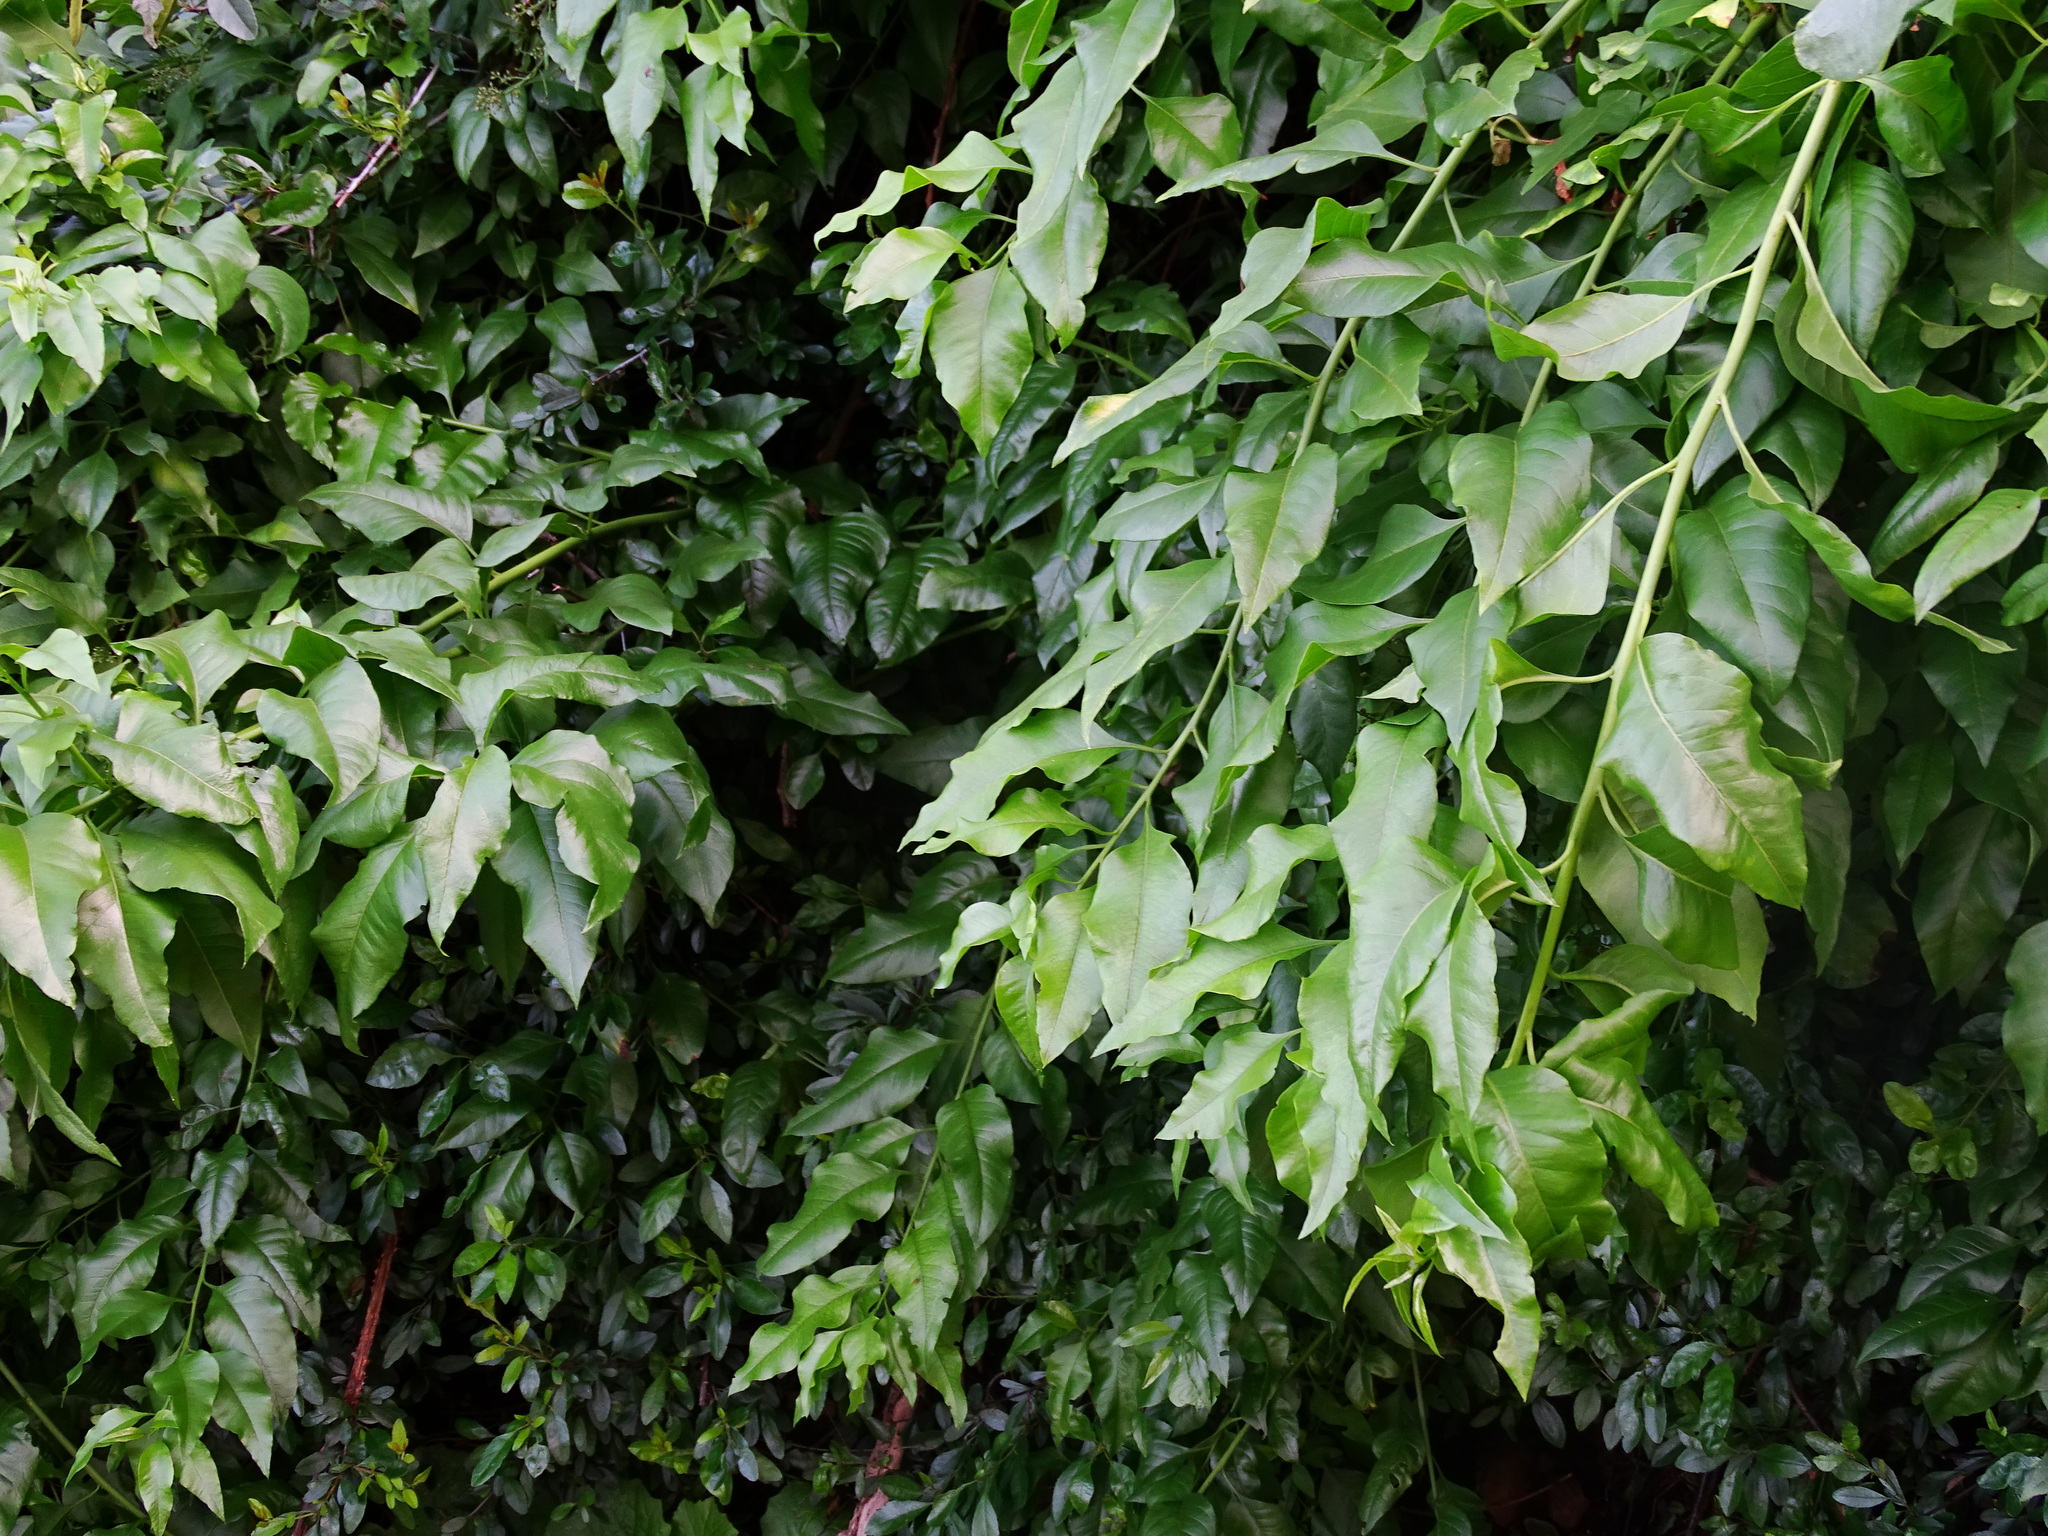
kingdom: Plantae
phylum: Tracheophyta
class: Magnoliopsida
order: Caryophyllales
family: Amaranthaceae
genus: Bosea
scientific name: Bosea yervamora
